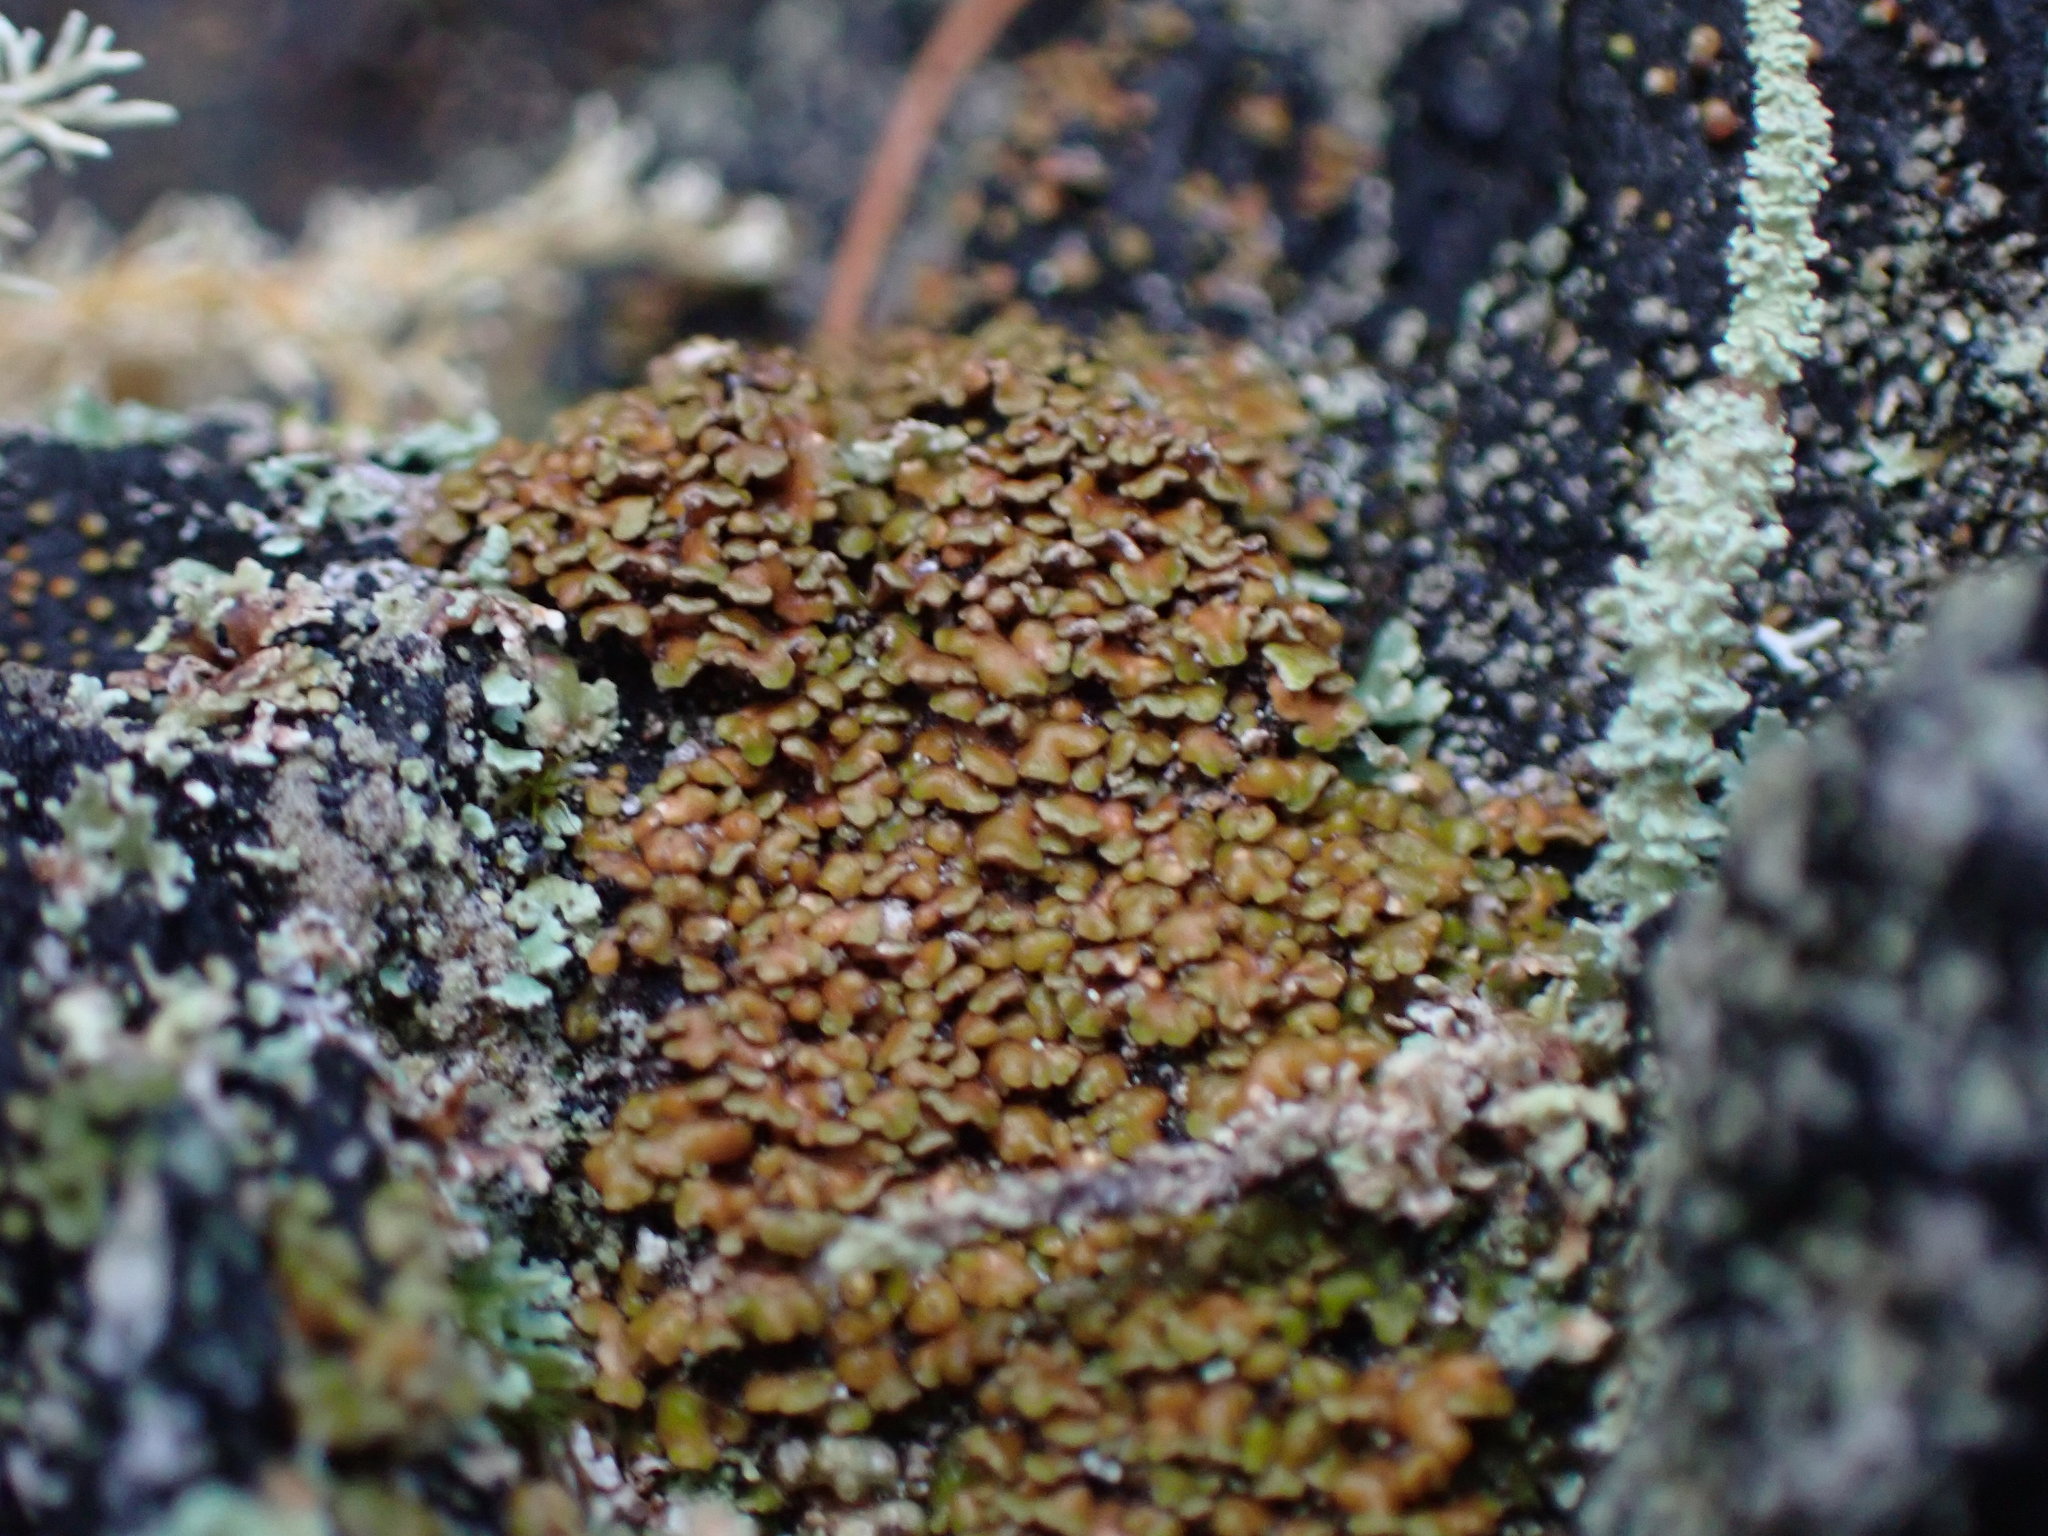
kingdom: Fungi
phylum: Ascomycota
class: Lecanoromycetes
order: Lecanorales
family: Carbonicolaceae
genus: Carbonicola
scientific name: Carbonicola myrmecina
